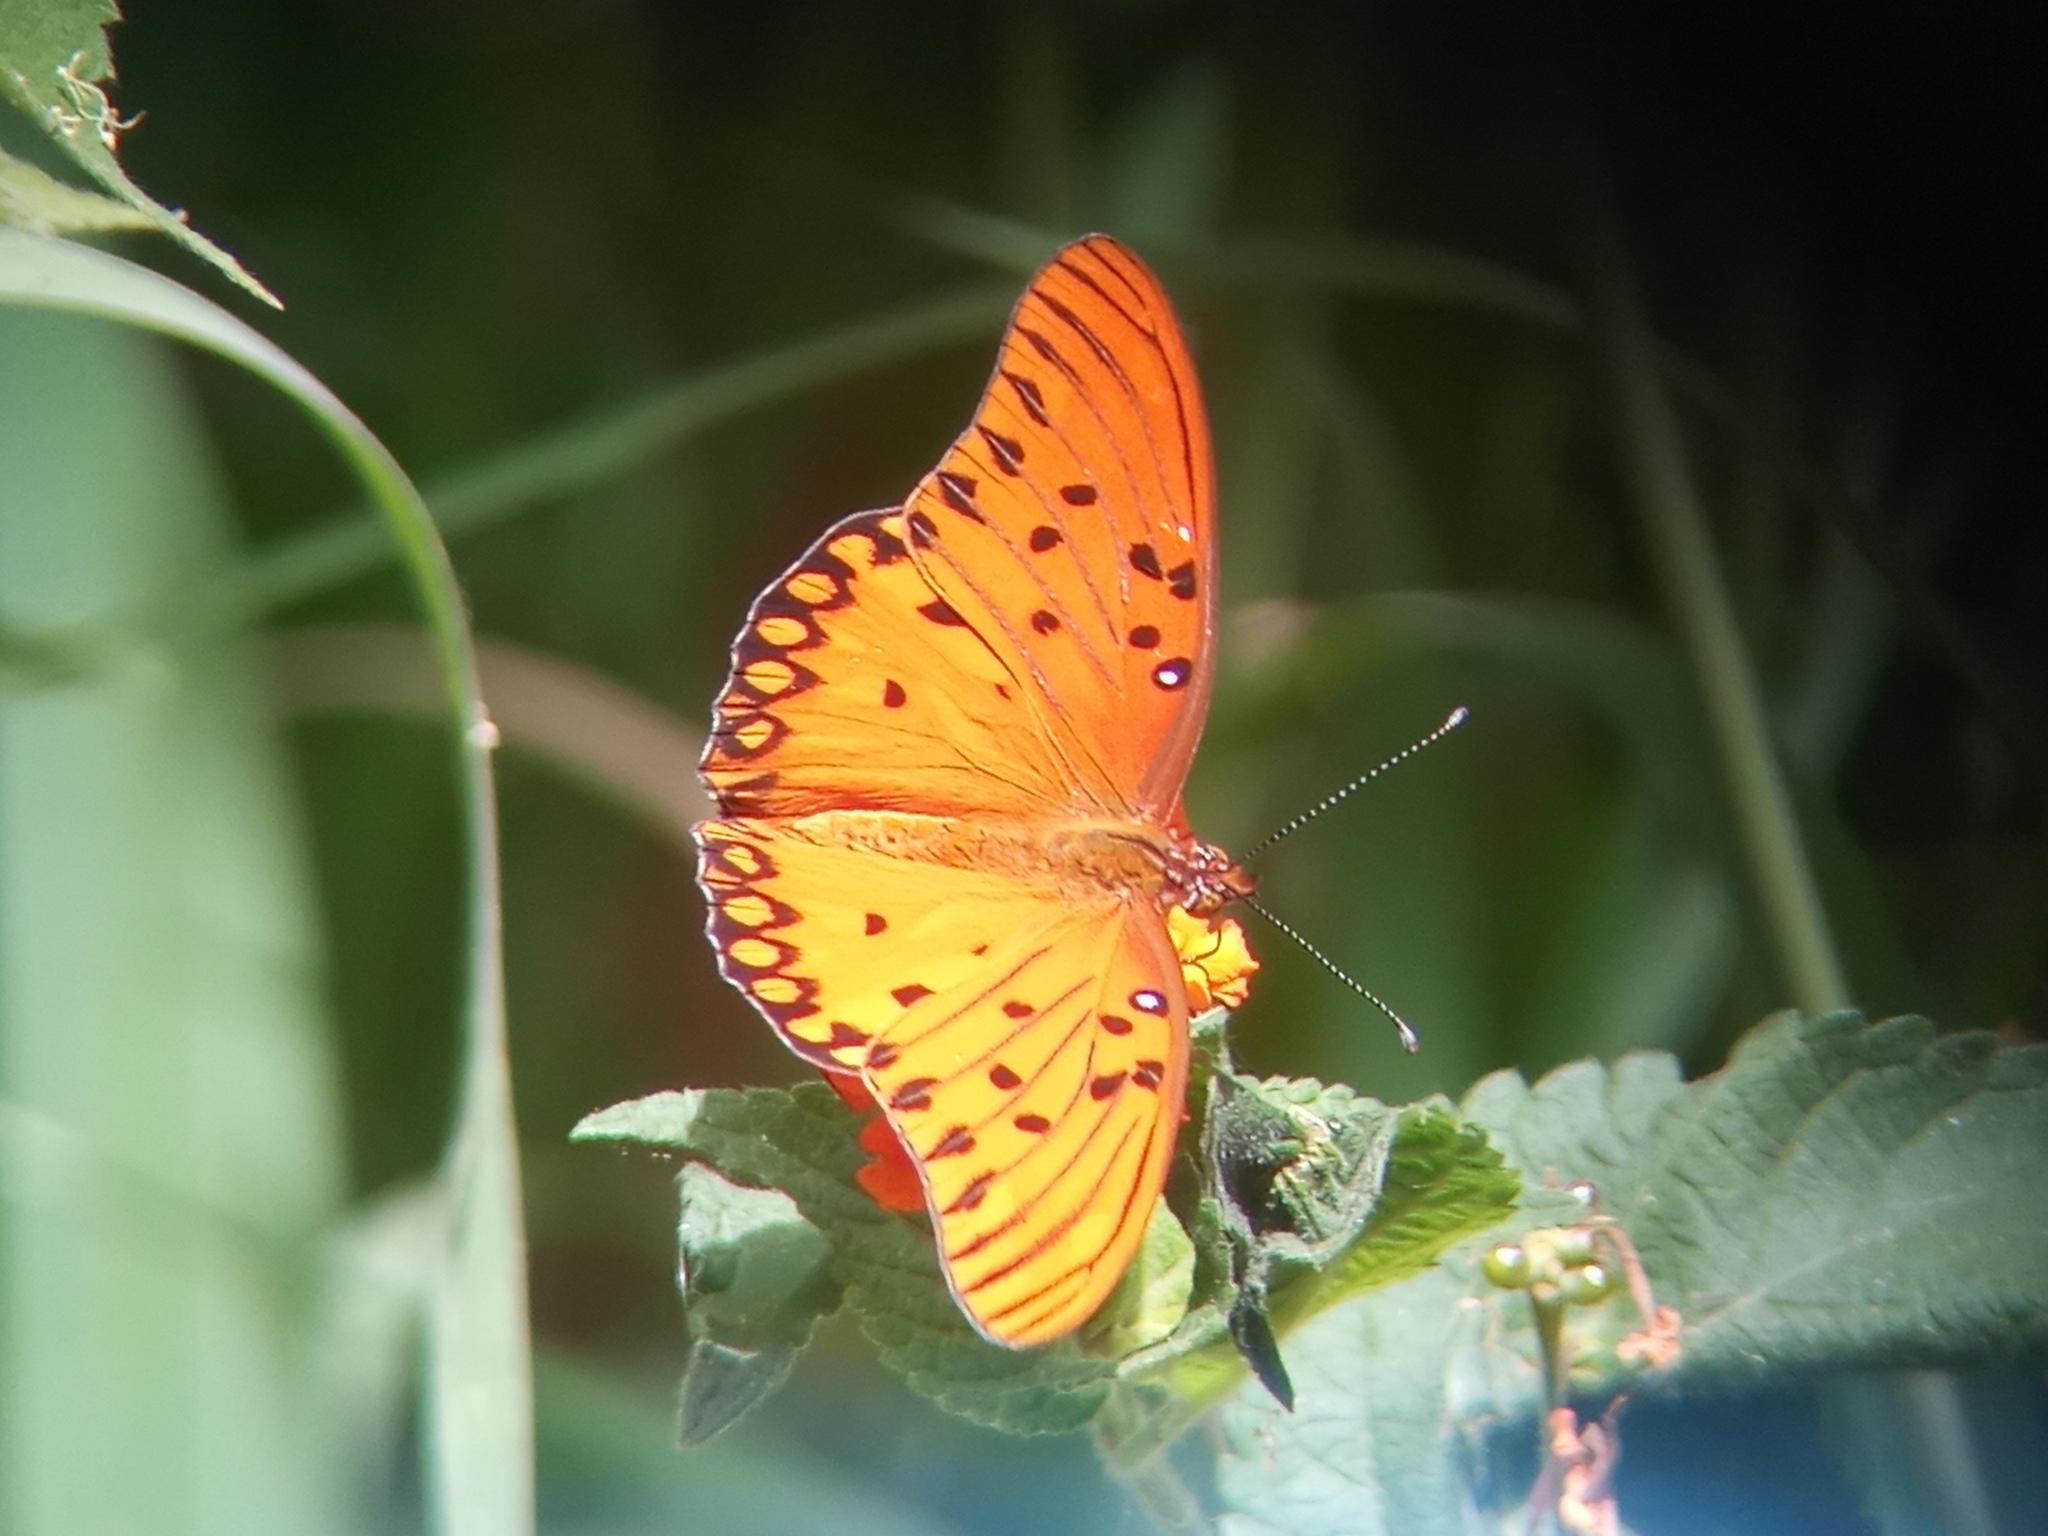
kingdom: Animalia
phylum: Arthropoda
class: Insecta
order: Lepidoptera
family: Nymphalidae
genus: Dione
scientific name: Dione vanillae
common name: Gulf fritillary
